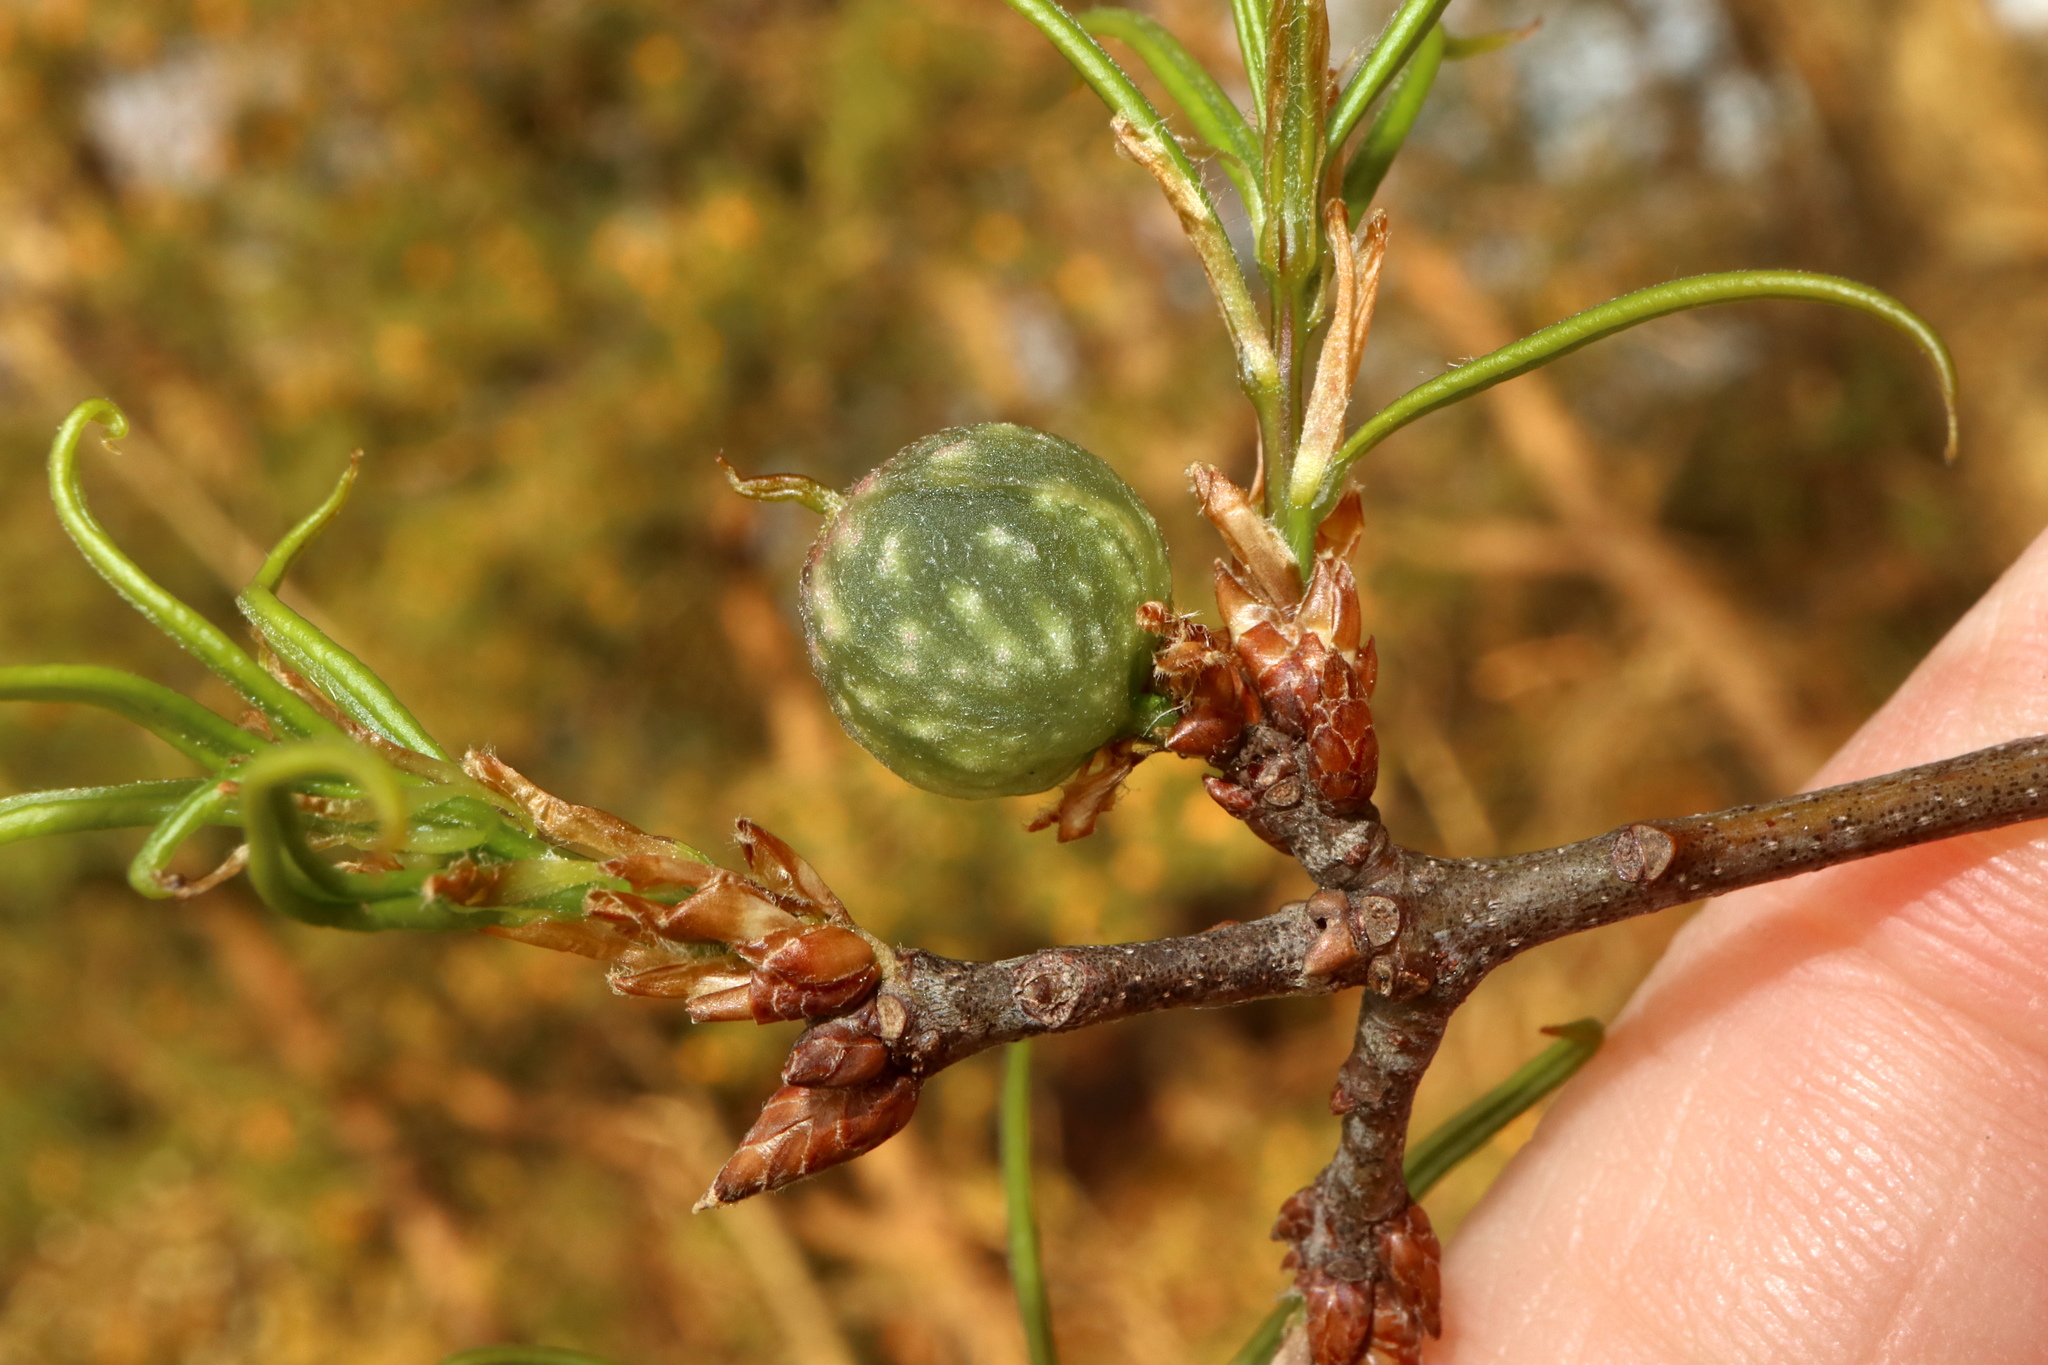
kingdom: Animalia
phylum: Arthropoda
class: Insecta
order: Hymenoptera
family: Cynipidae
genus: Dryocosmus
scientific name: Dryocosmus
